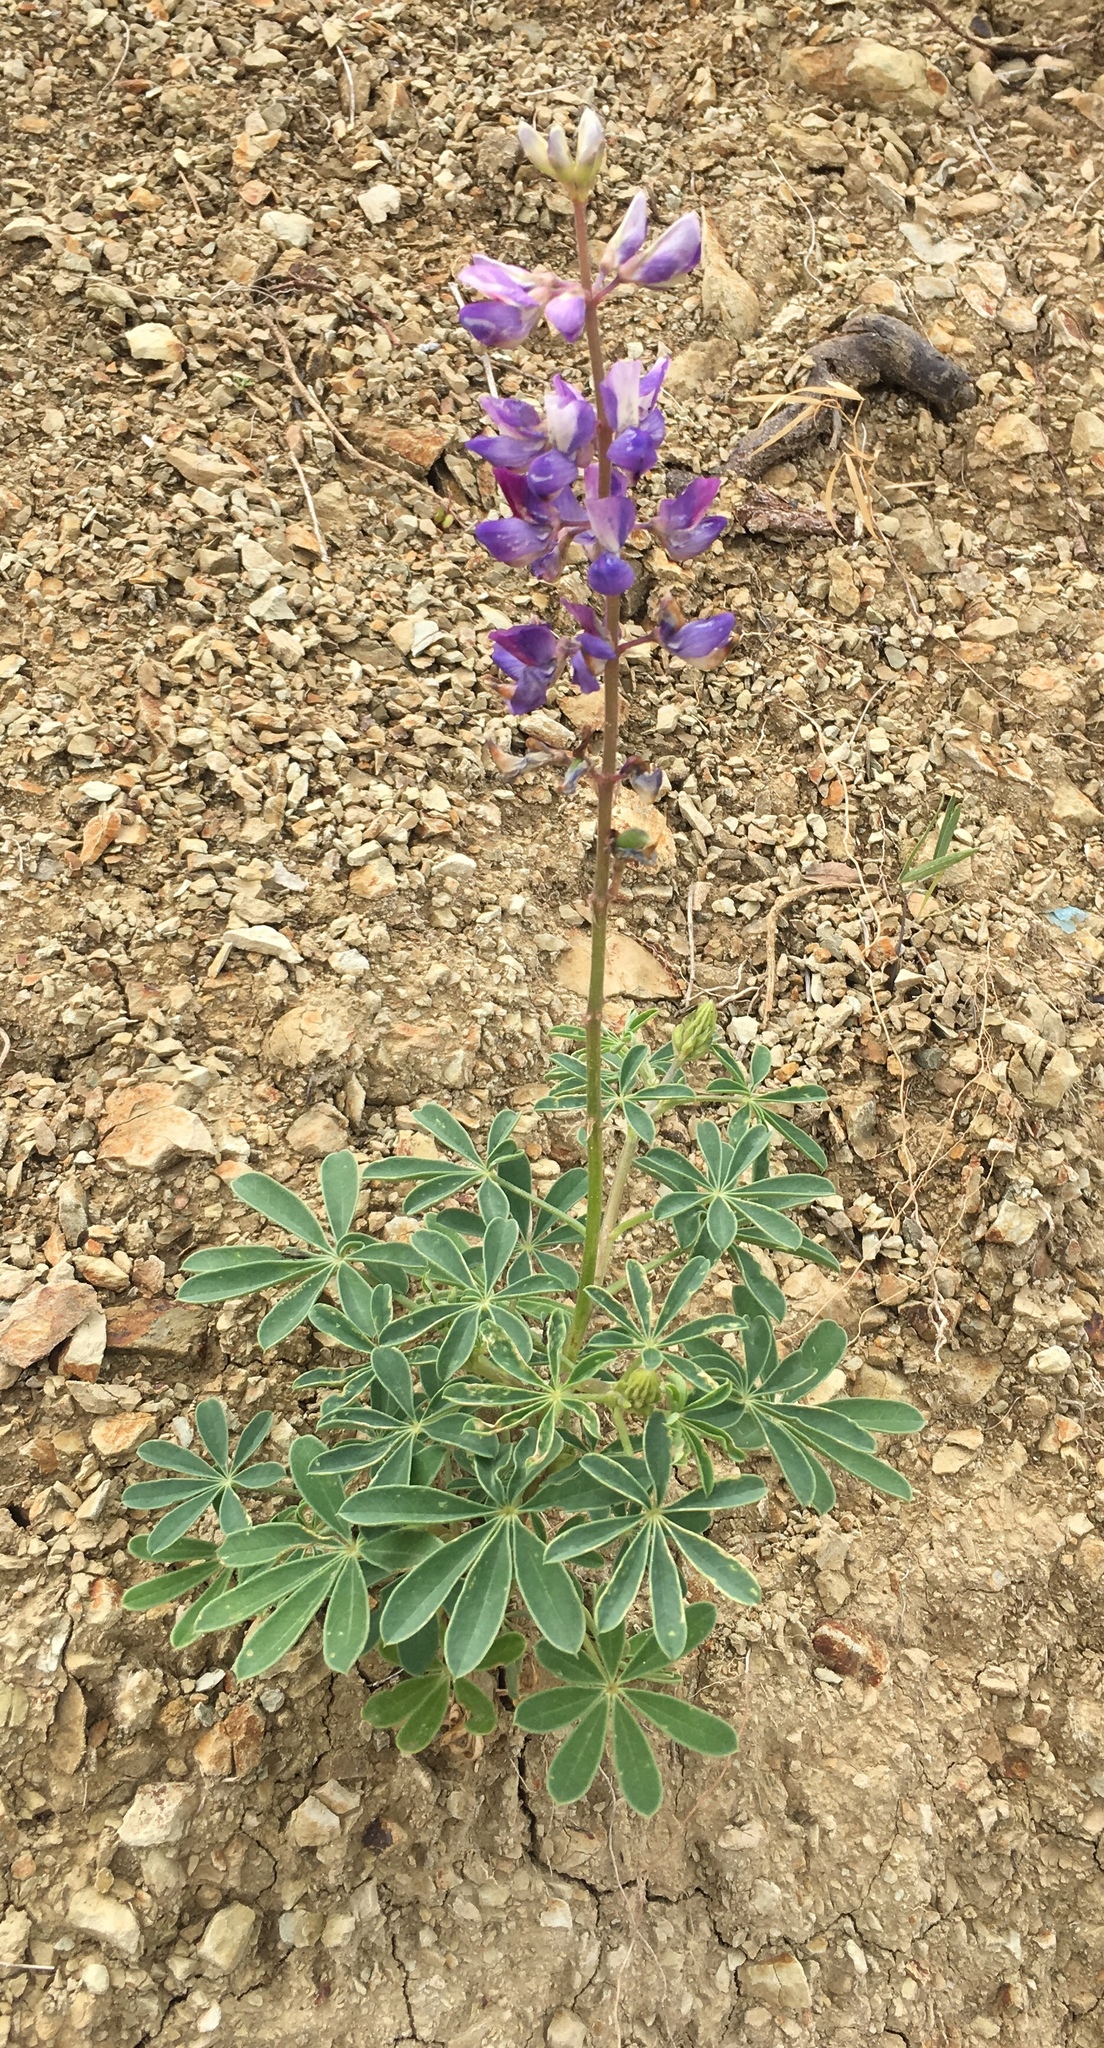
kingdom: Plantae
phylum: Tracheophyta
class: Magnoliopsida
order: Fabales
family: Fabaceae
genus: Lupinus
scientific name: Lupinus succulentus
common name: Arroyo lupine
